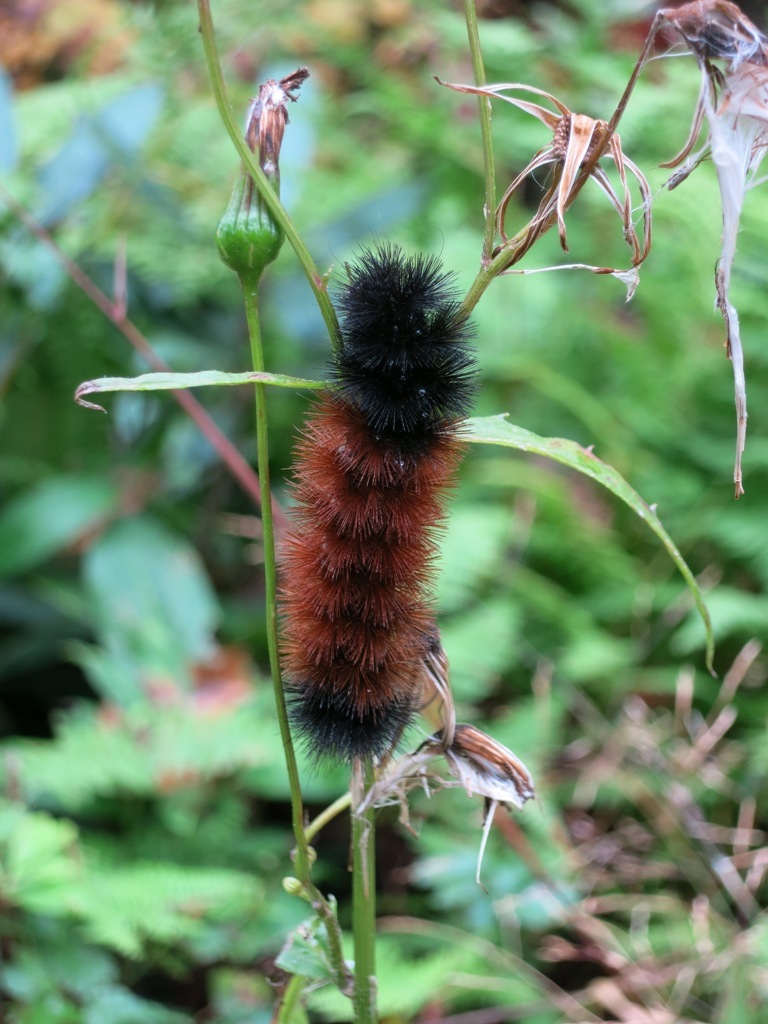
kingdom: Animalia
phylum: Arthropoda
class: Insecta
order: Lepidoptera
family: Erebidae
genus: Pyrrharctia
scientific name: Pyrrharctia isabella
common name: Isabella tiger moth
